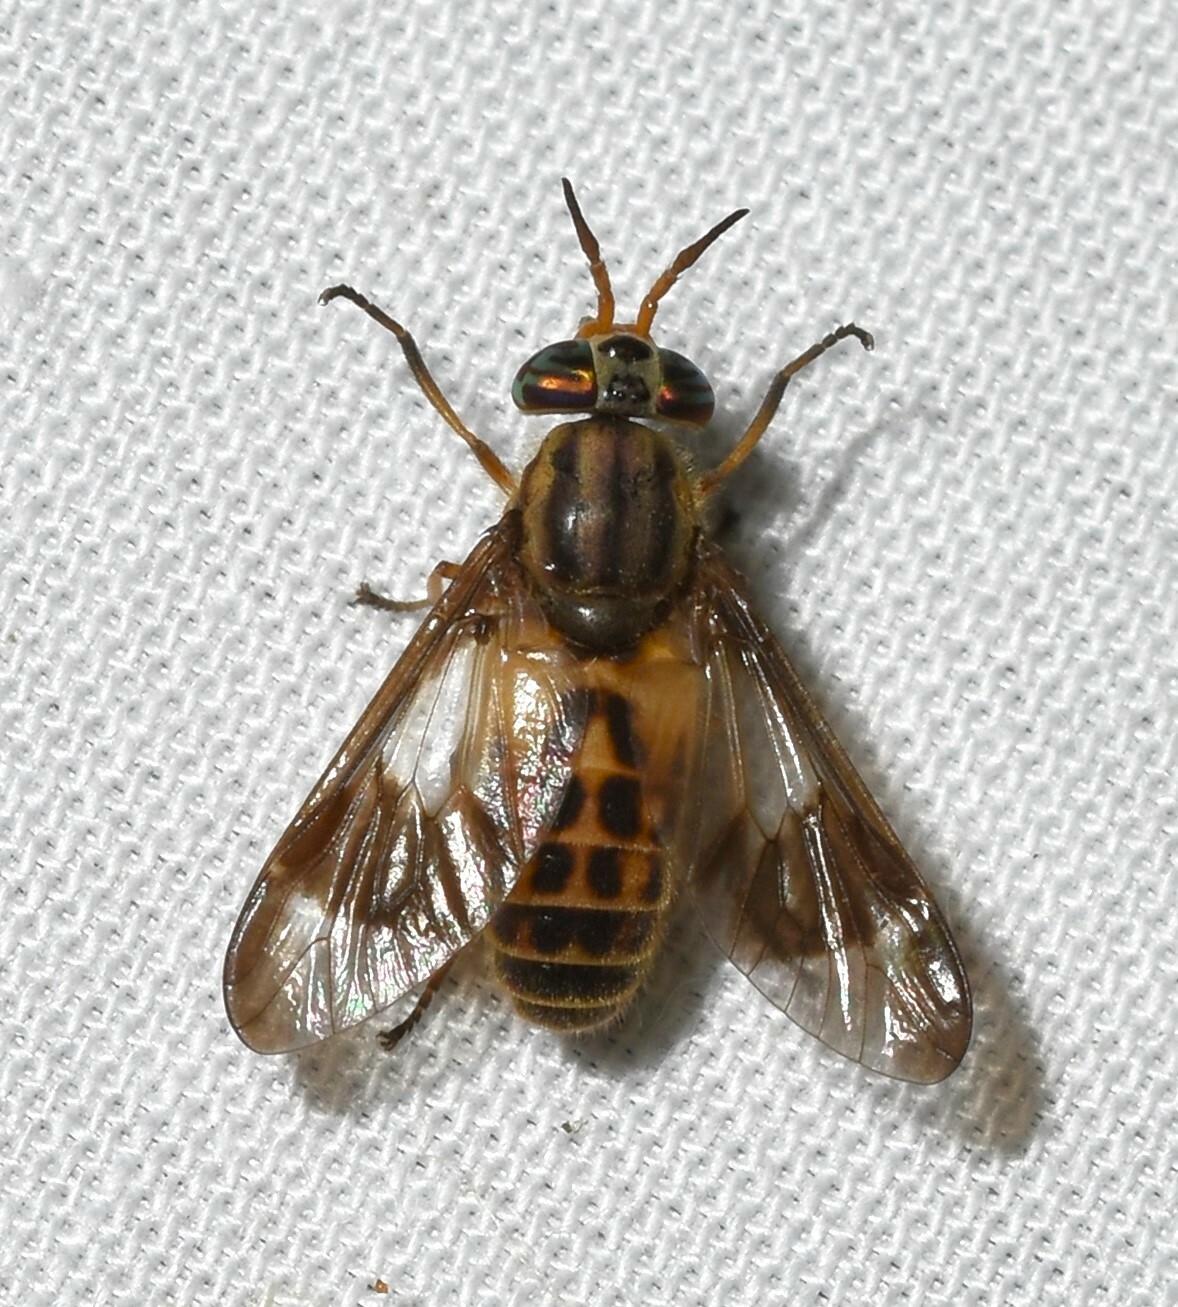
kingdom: Animalia
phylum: Arthropoda
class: Insecta
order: Diptera
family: Tabanidae
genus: Chrysops
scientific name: Chrysops montanus
